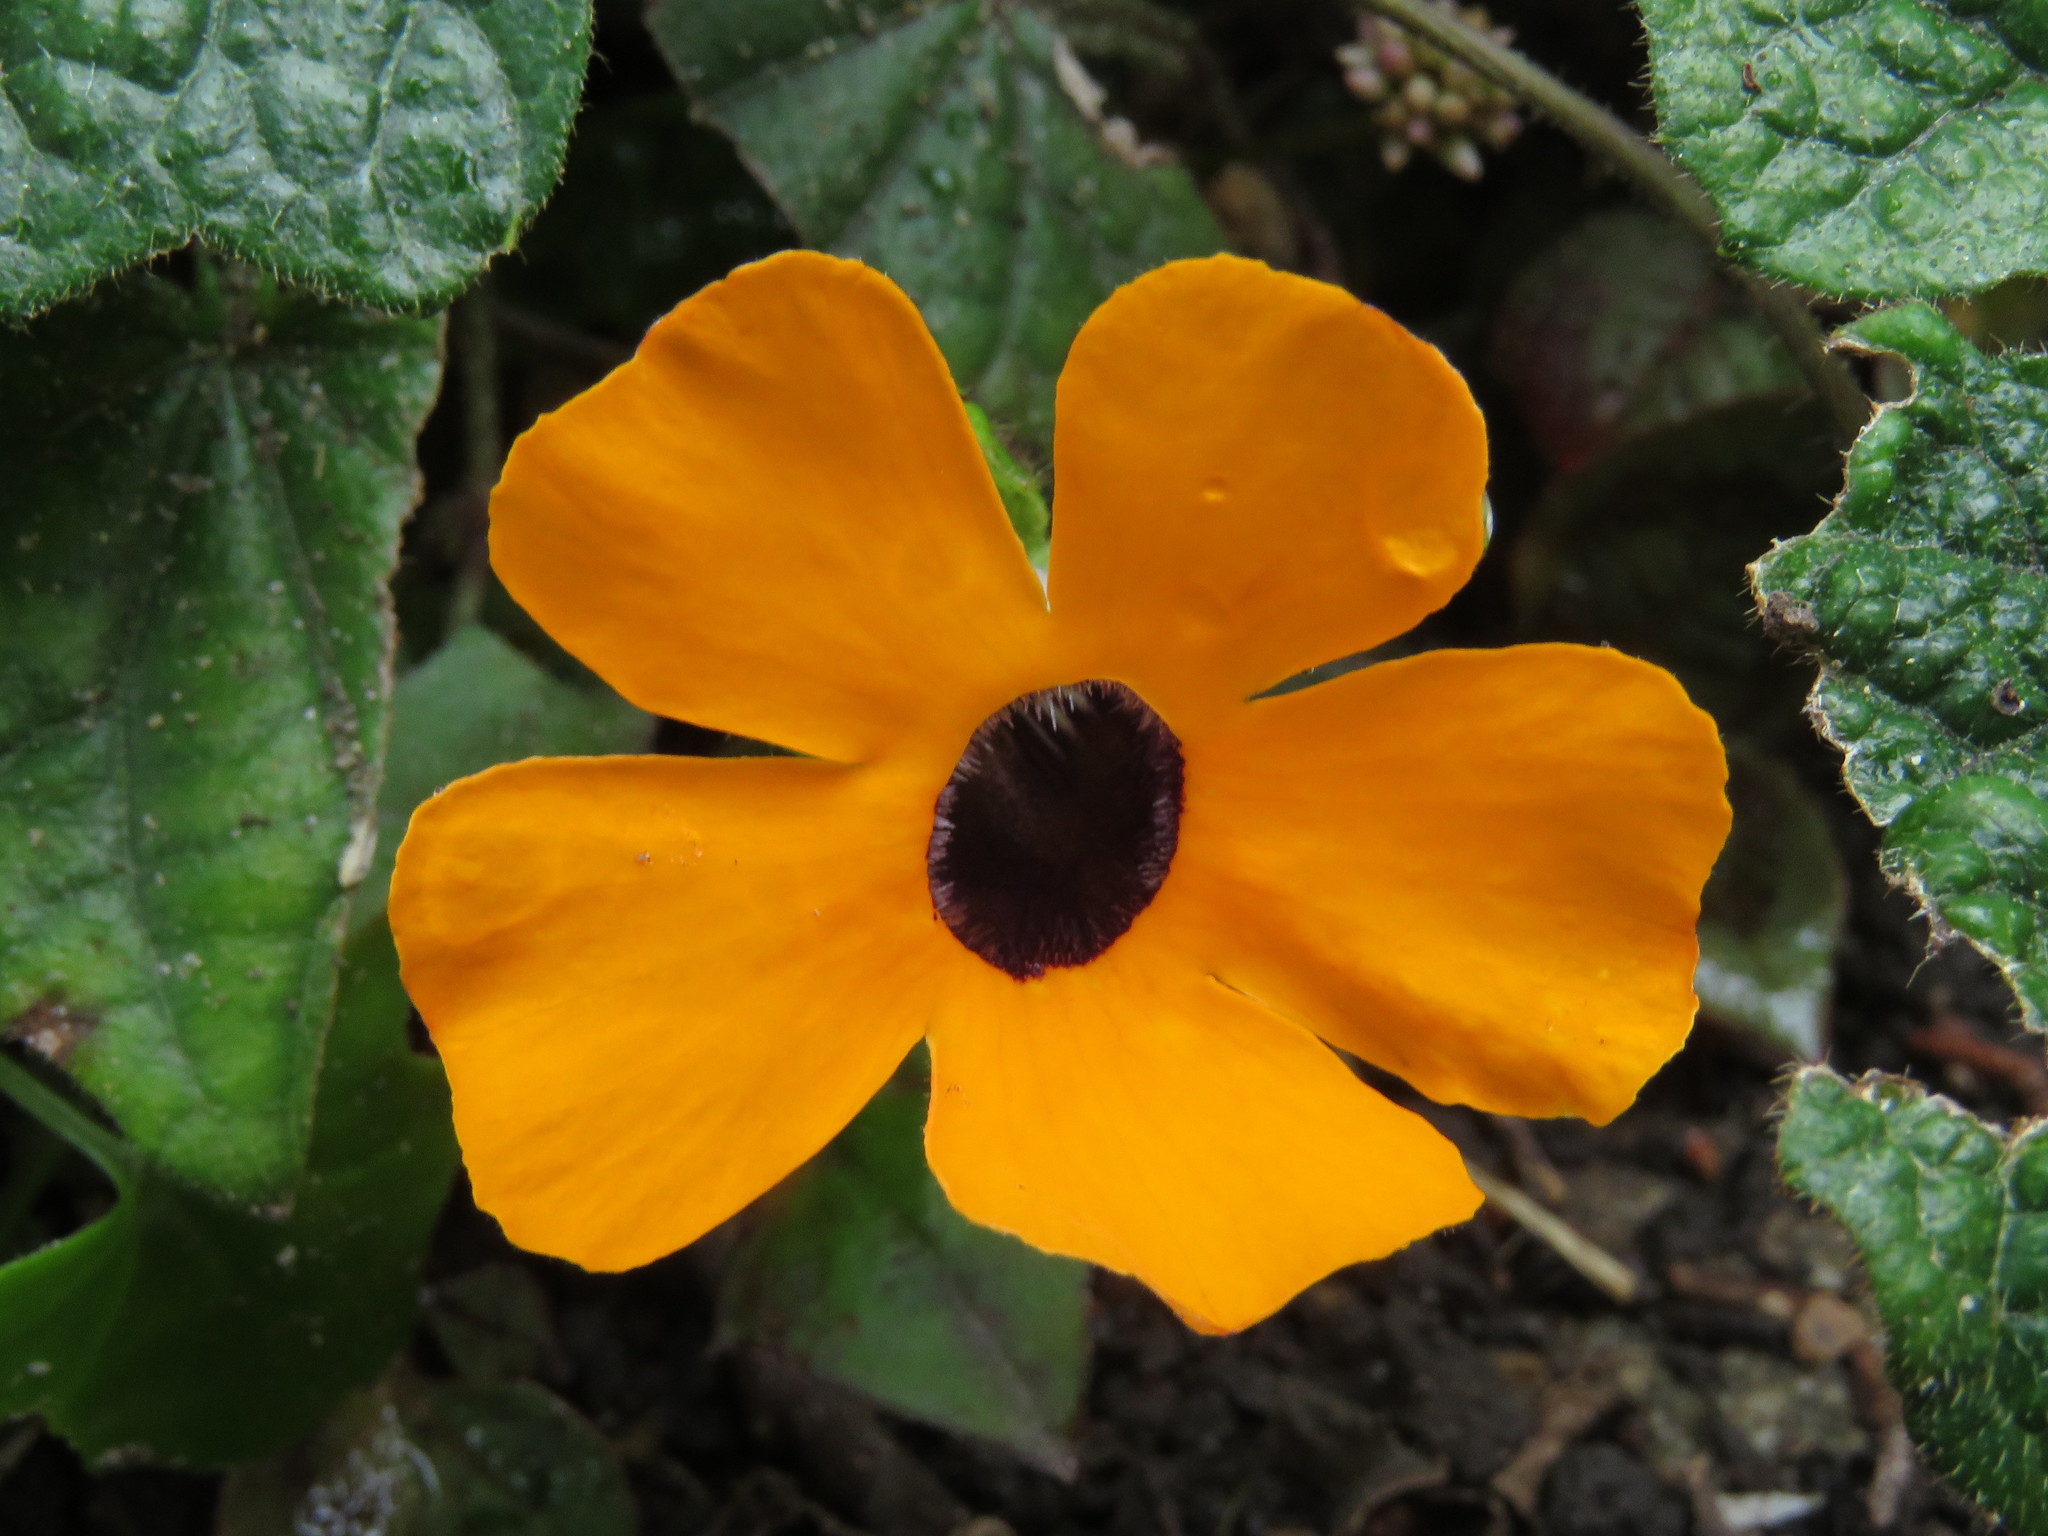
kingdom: Plantae
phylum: Tracheophyta
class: Magnoliopsida
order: Lamiales
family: Acanthaceae
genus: Thunbergia
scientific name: Thunbergia alata
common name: Blackeyed susan vine
